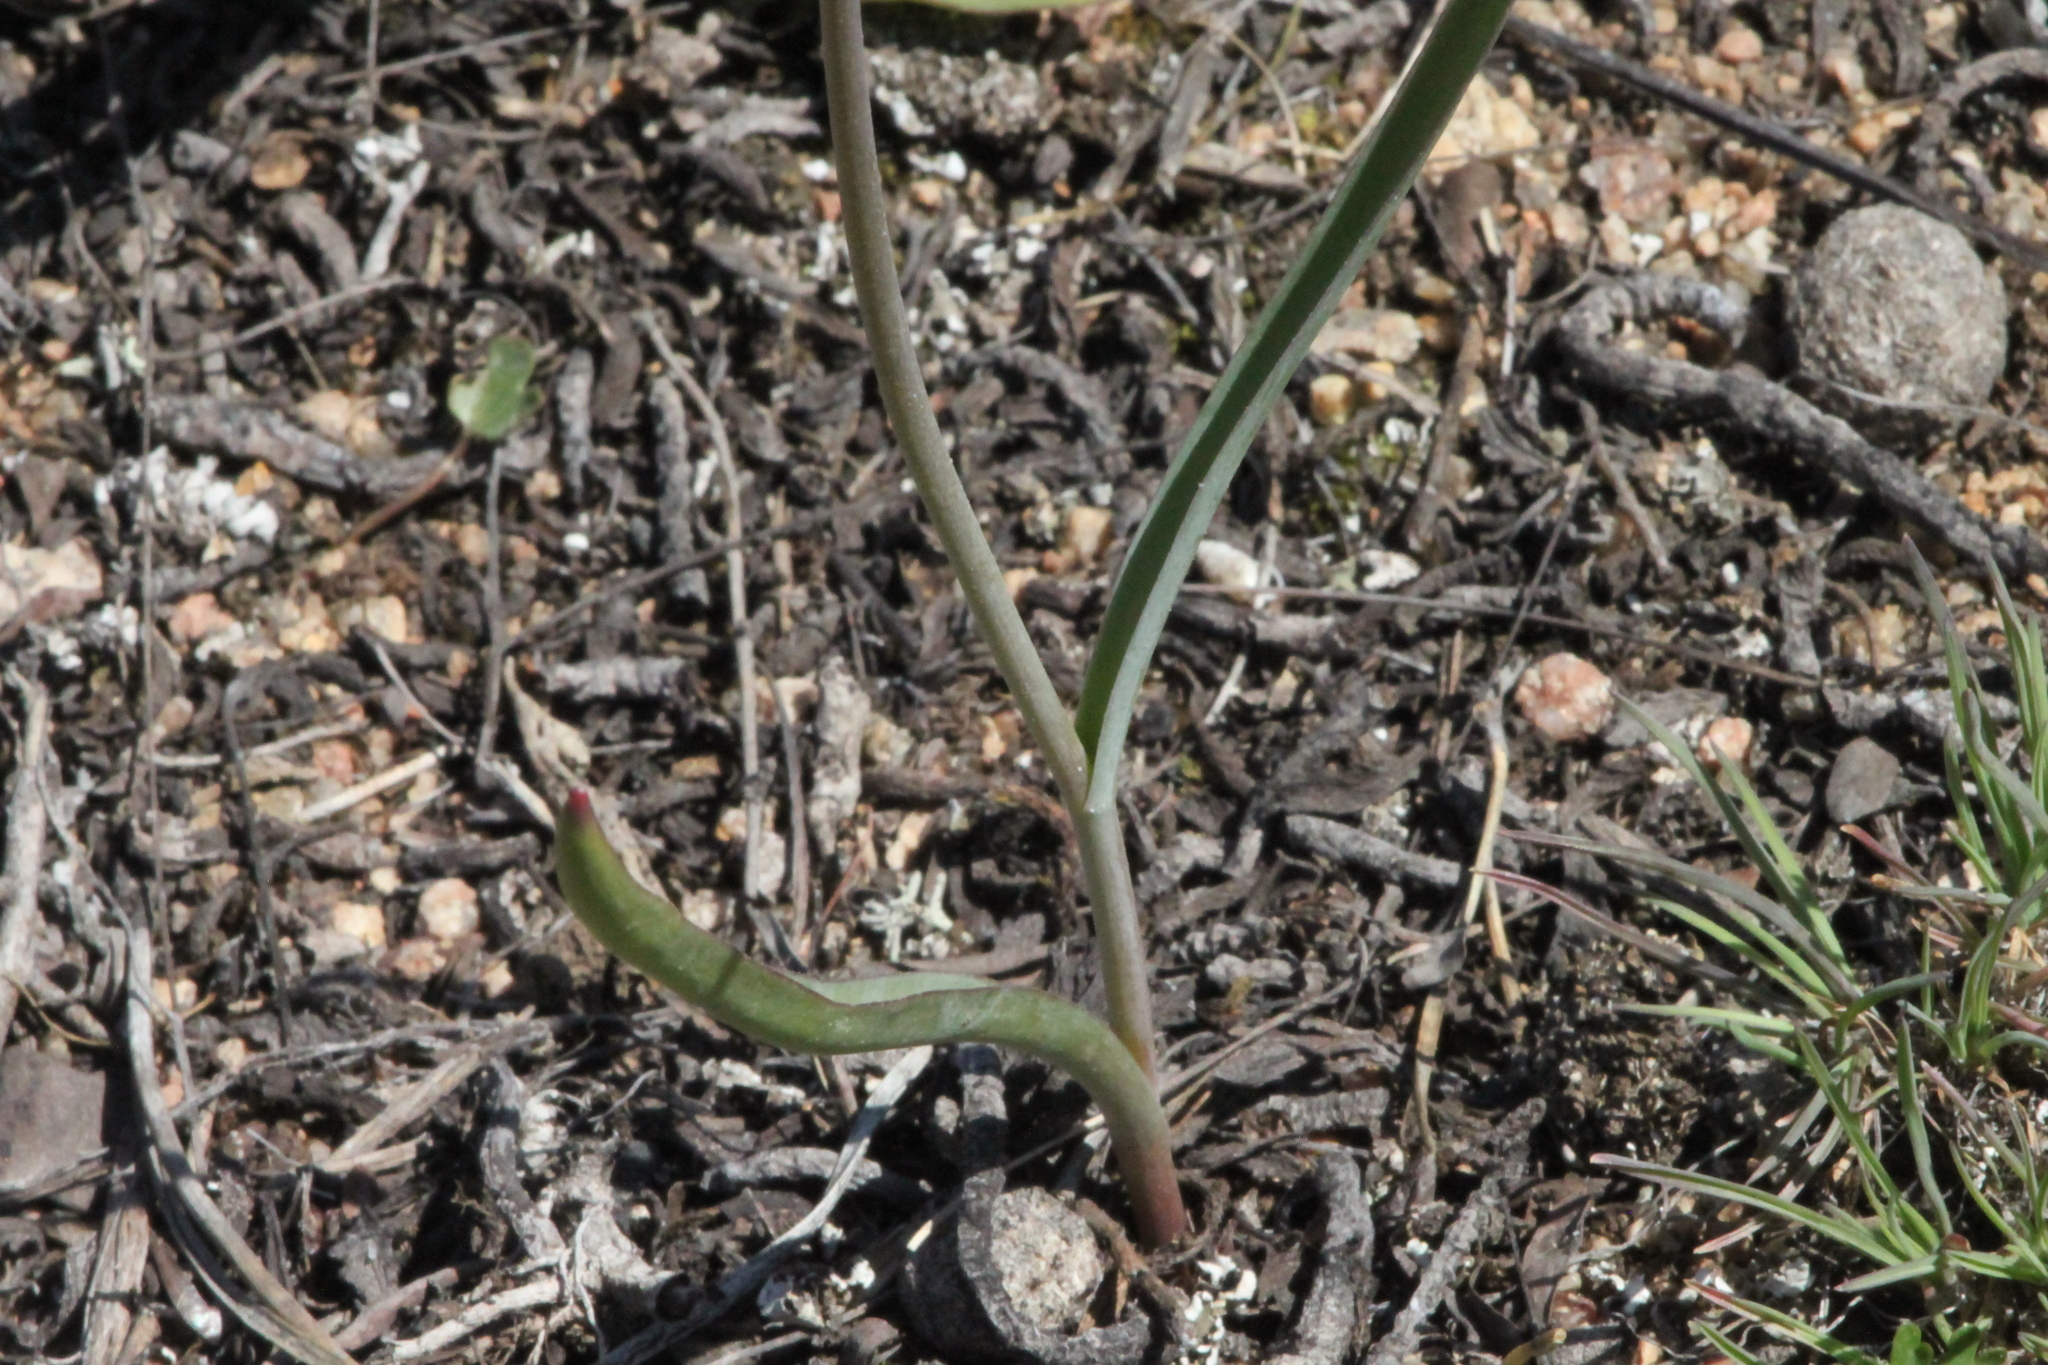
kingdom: Plantae
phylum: Tracheophyta
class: Liliopsida
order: Liliales
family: Liliaceae
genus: Tulipa
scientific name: Tulipa patens
